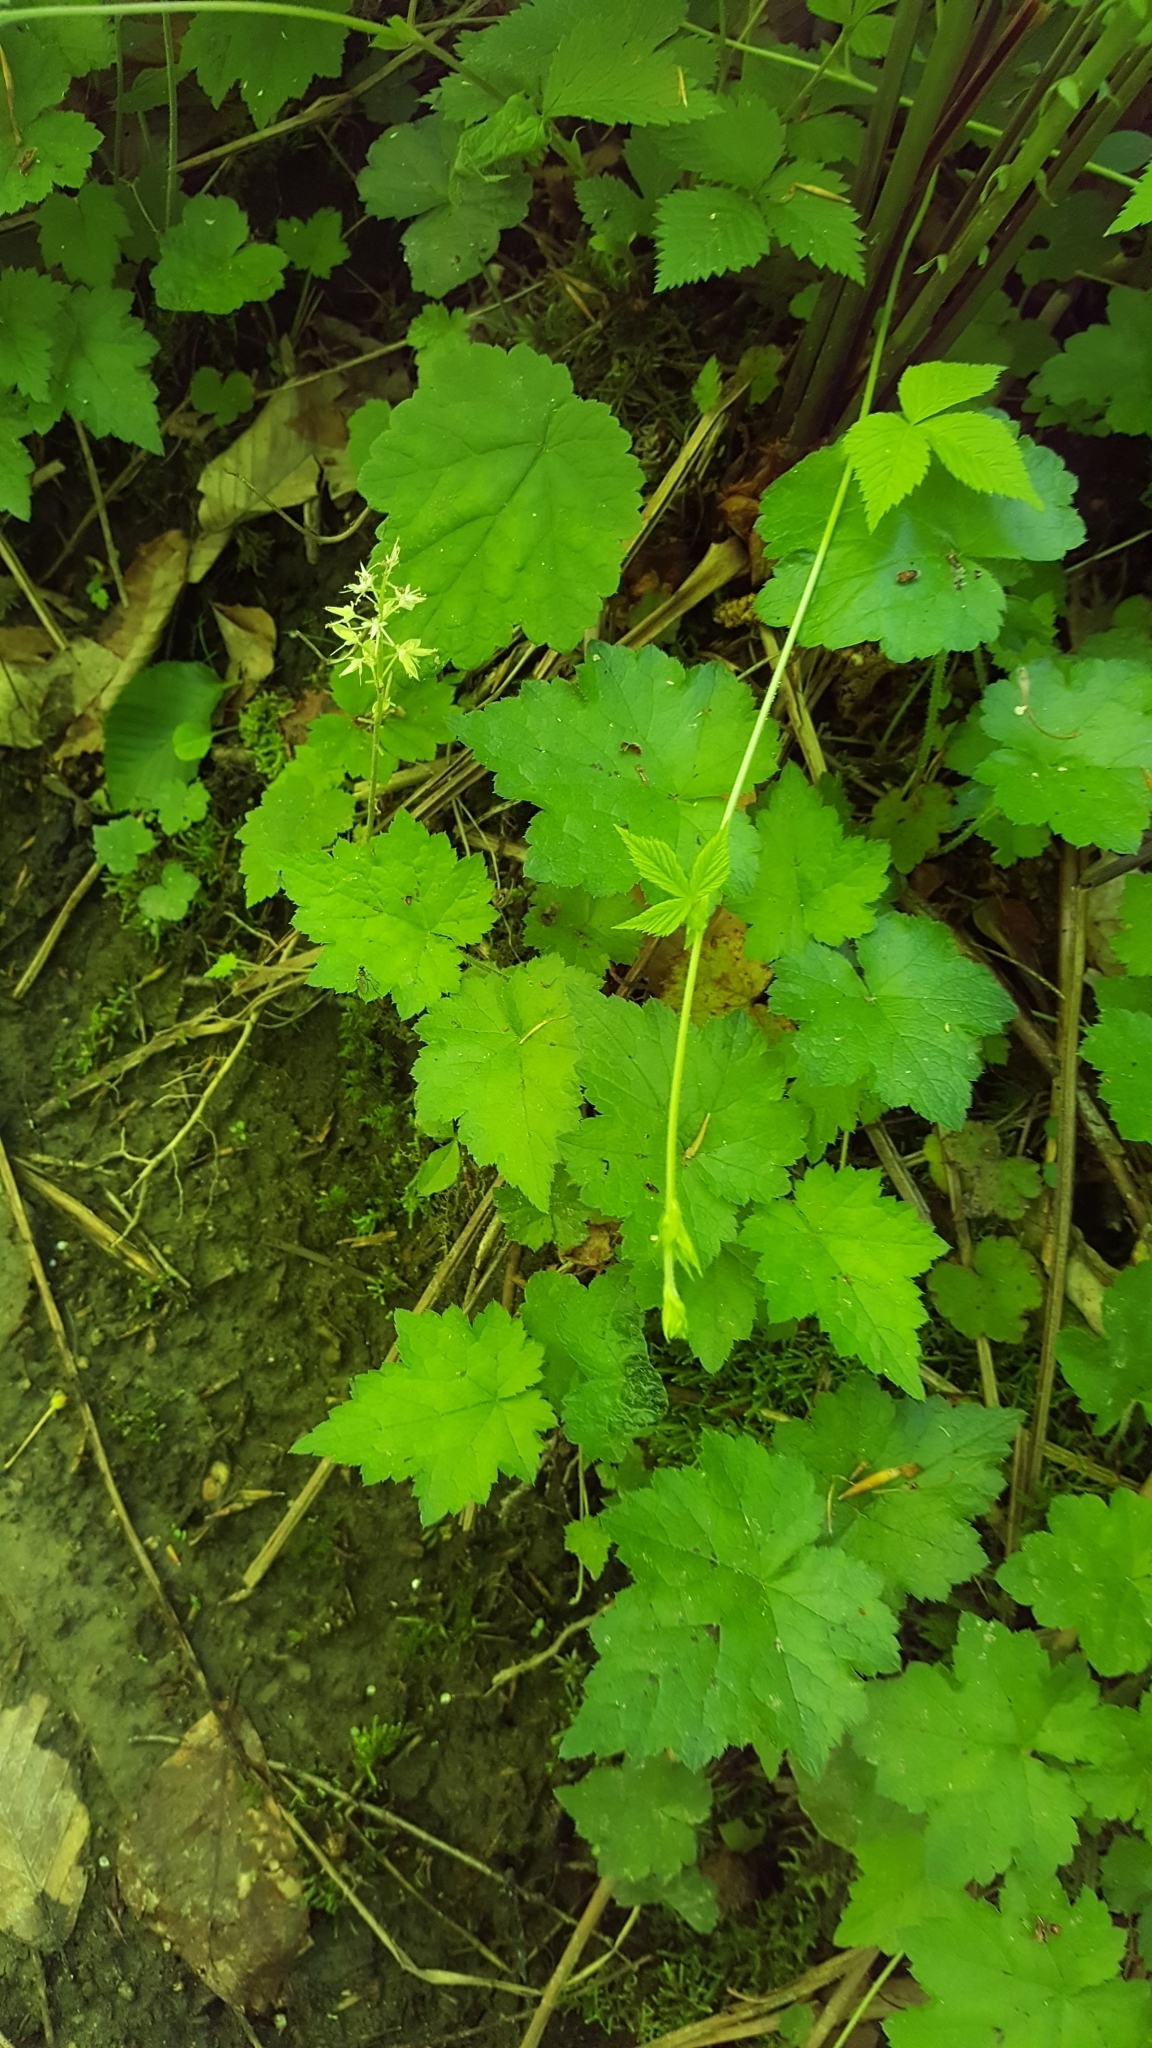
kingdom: Plantae
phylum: Tracheophyta
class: Magnoliopsida
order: Saxifragales
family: Saxifragaceae
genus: Tiarella
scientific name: Tiarella stolonifera
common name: Stoloniferous foamflower
